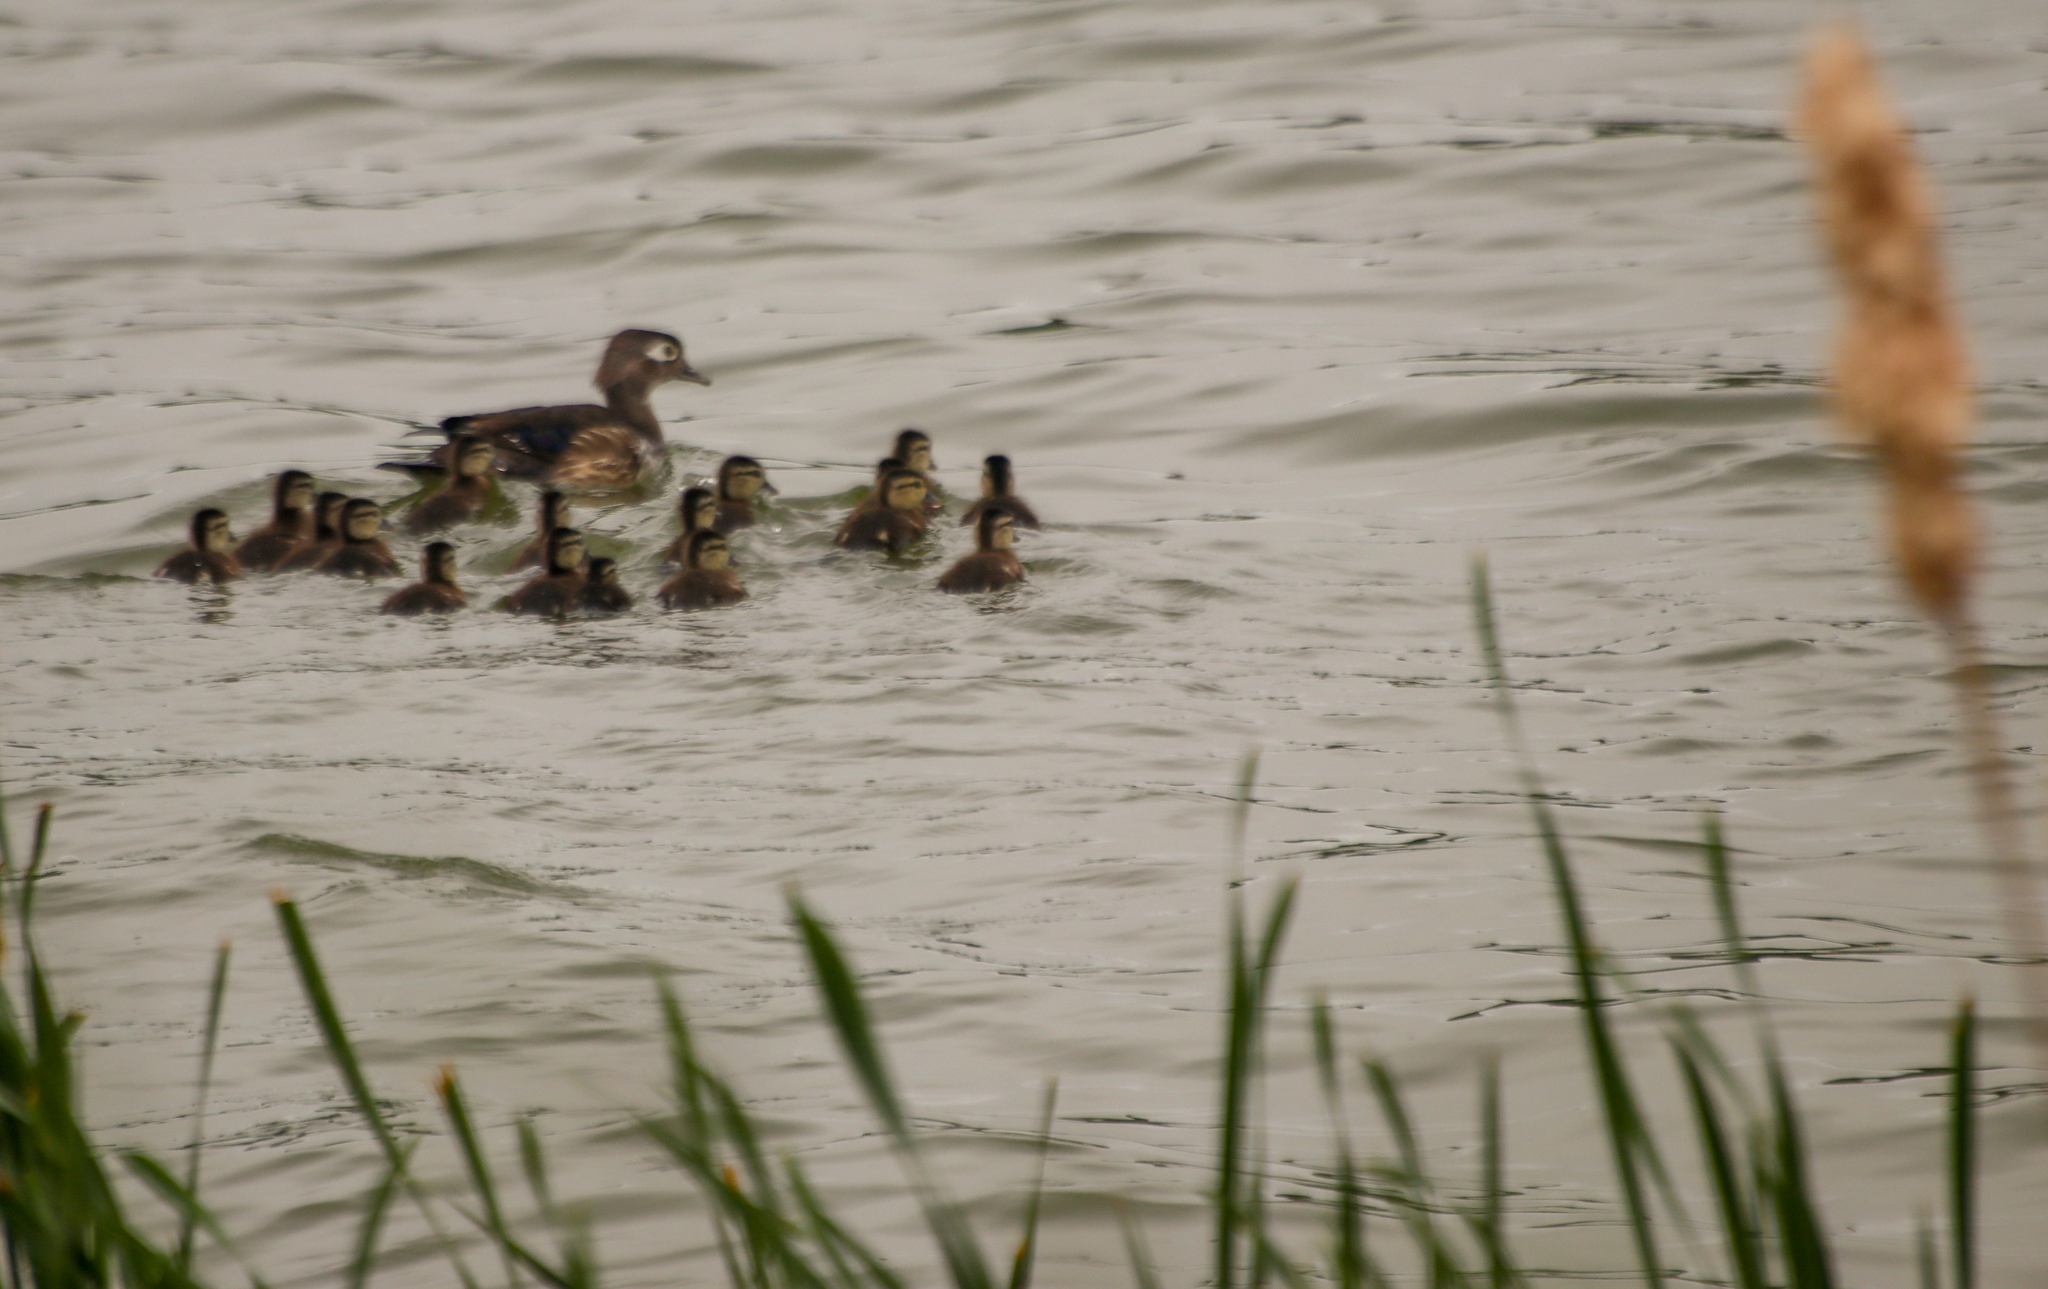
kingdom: Animalia
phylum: Chordata
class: Aves
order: Anseriformes
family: Anatidae
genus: Aix
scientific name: Aix sponsa
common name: Wood duck
